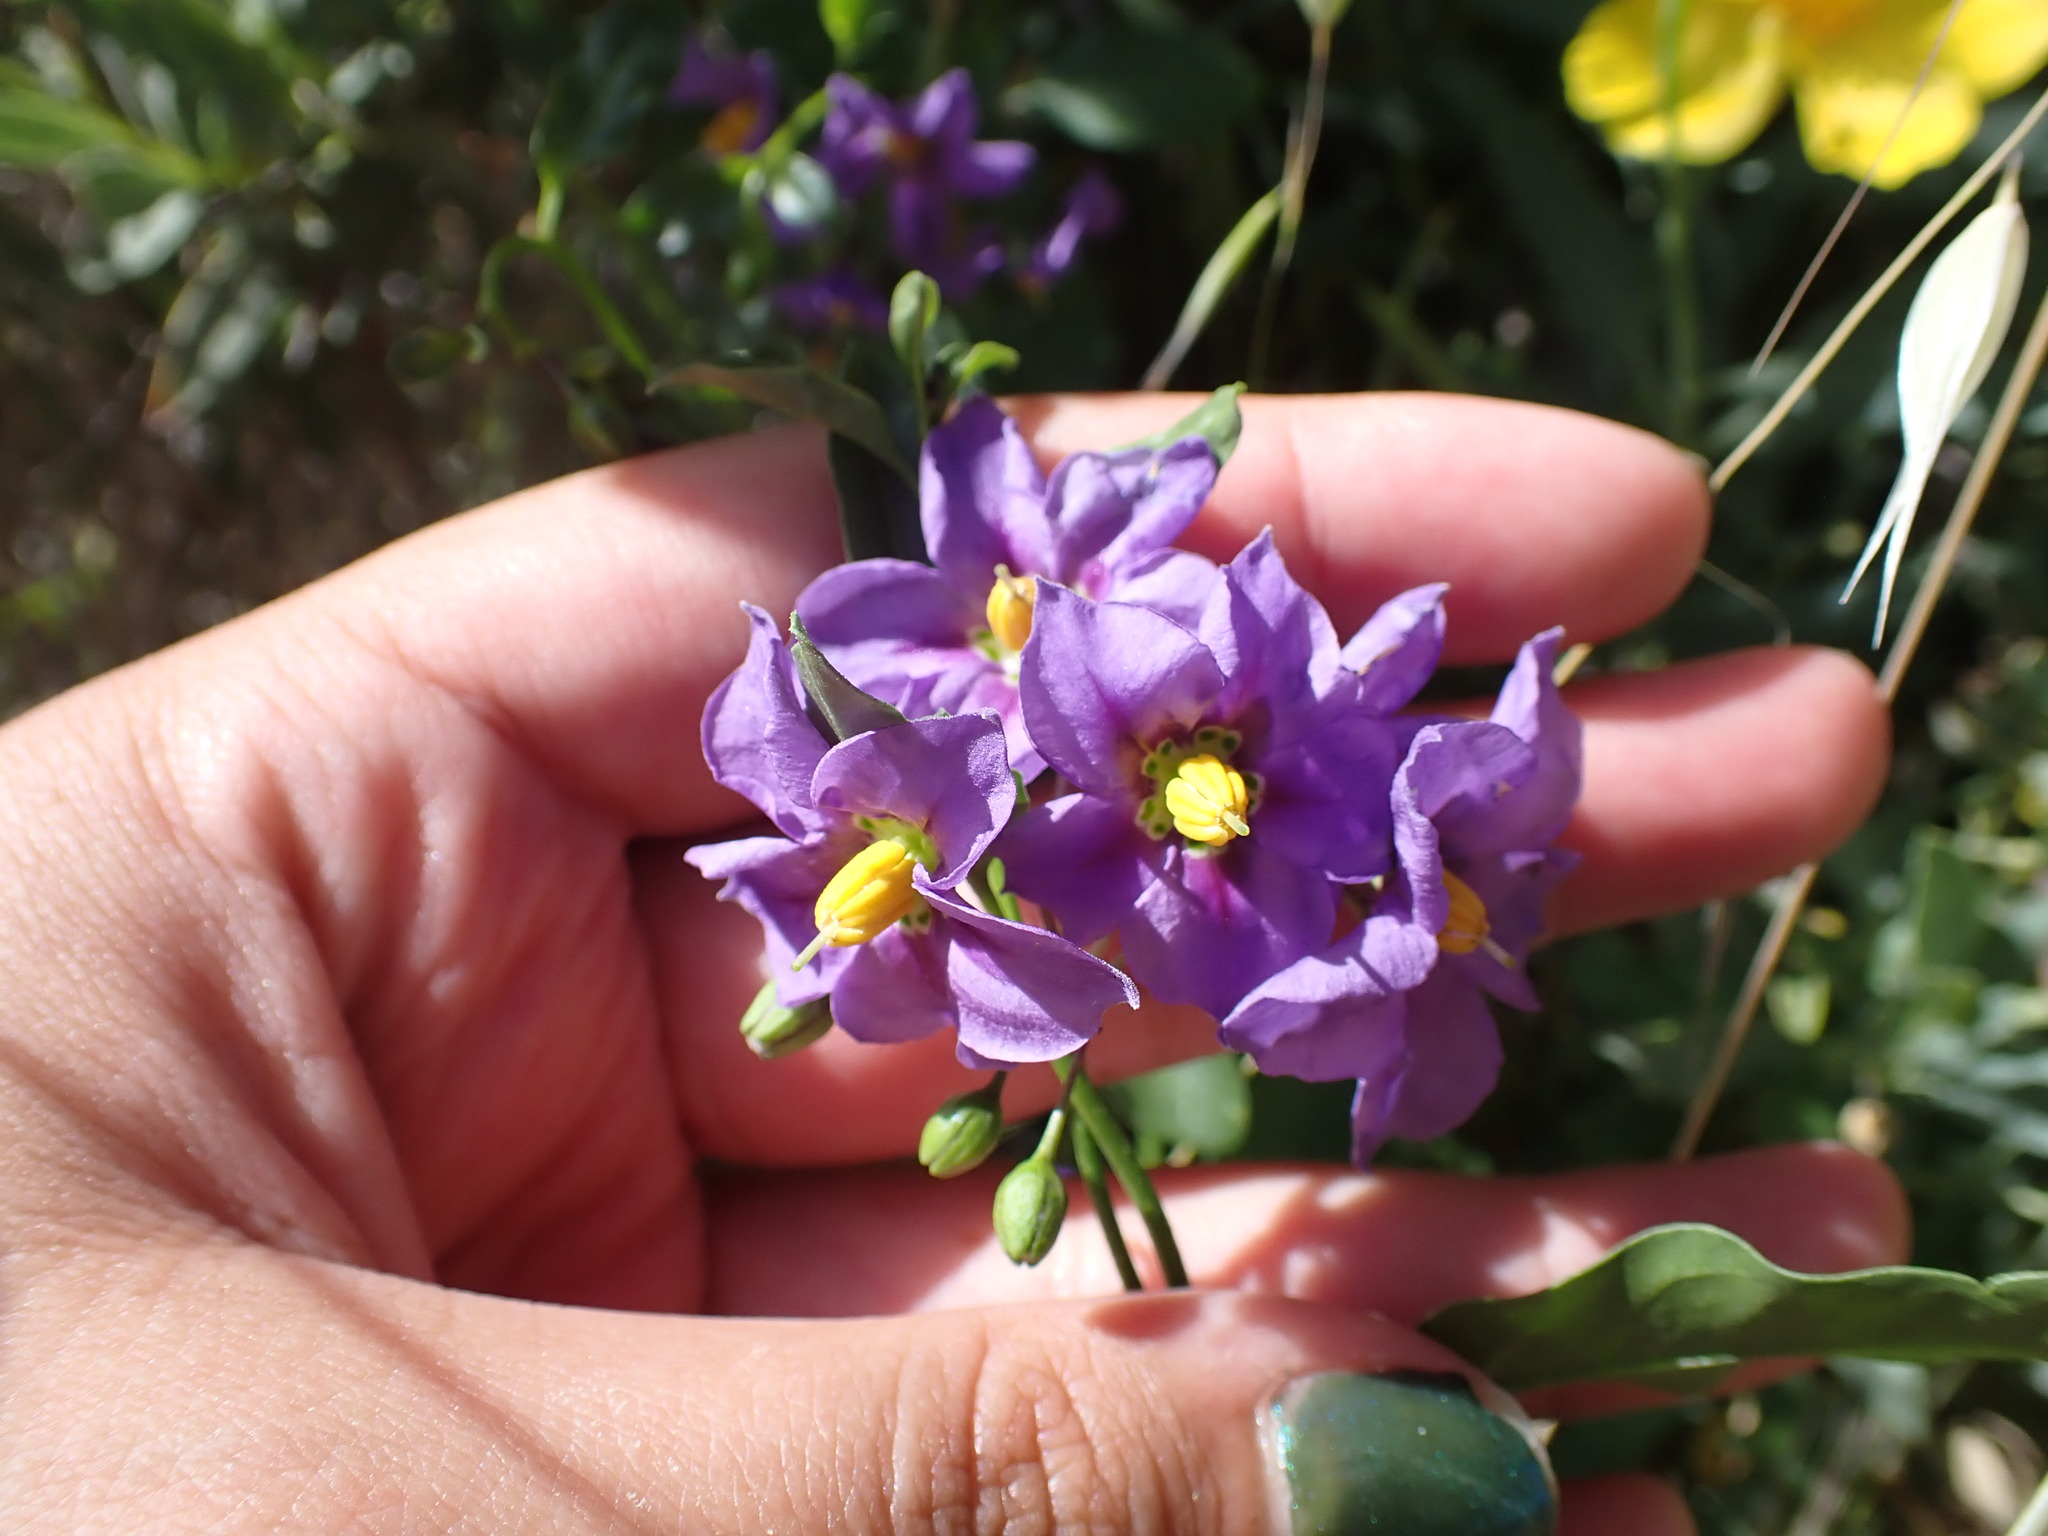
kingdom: Plantae
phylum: Tracheophyta
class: Magnoliopsida
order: Solanales
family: Solanaceae
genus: Solanum
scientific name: Solanum umbelliferum
